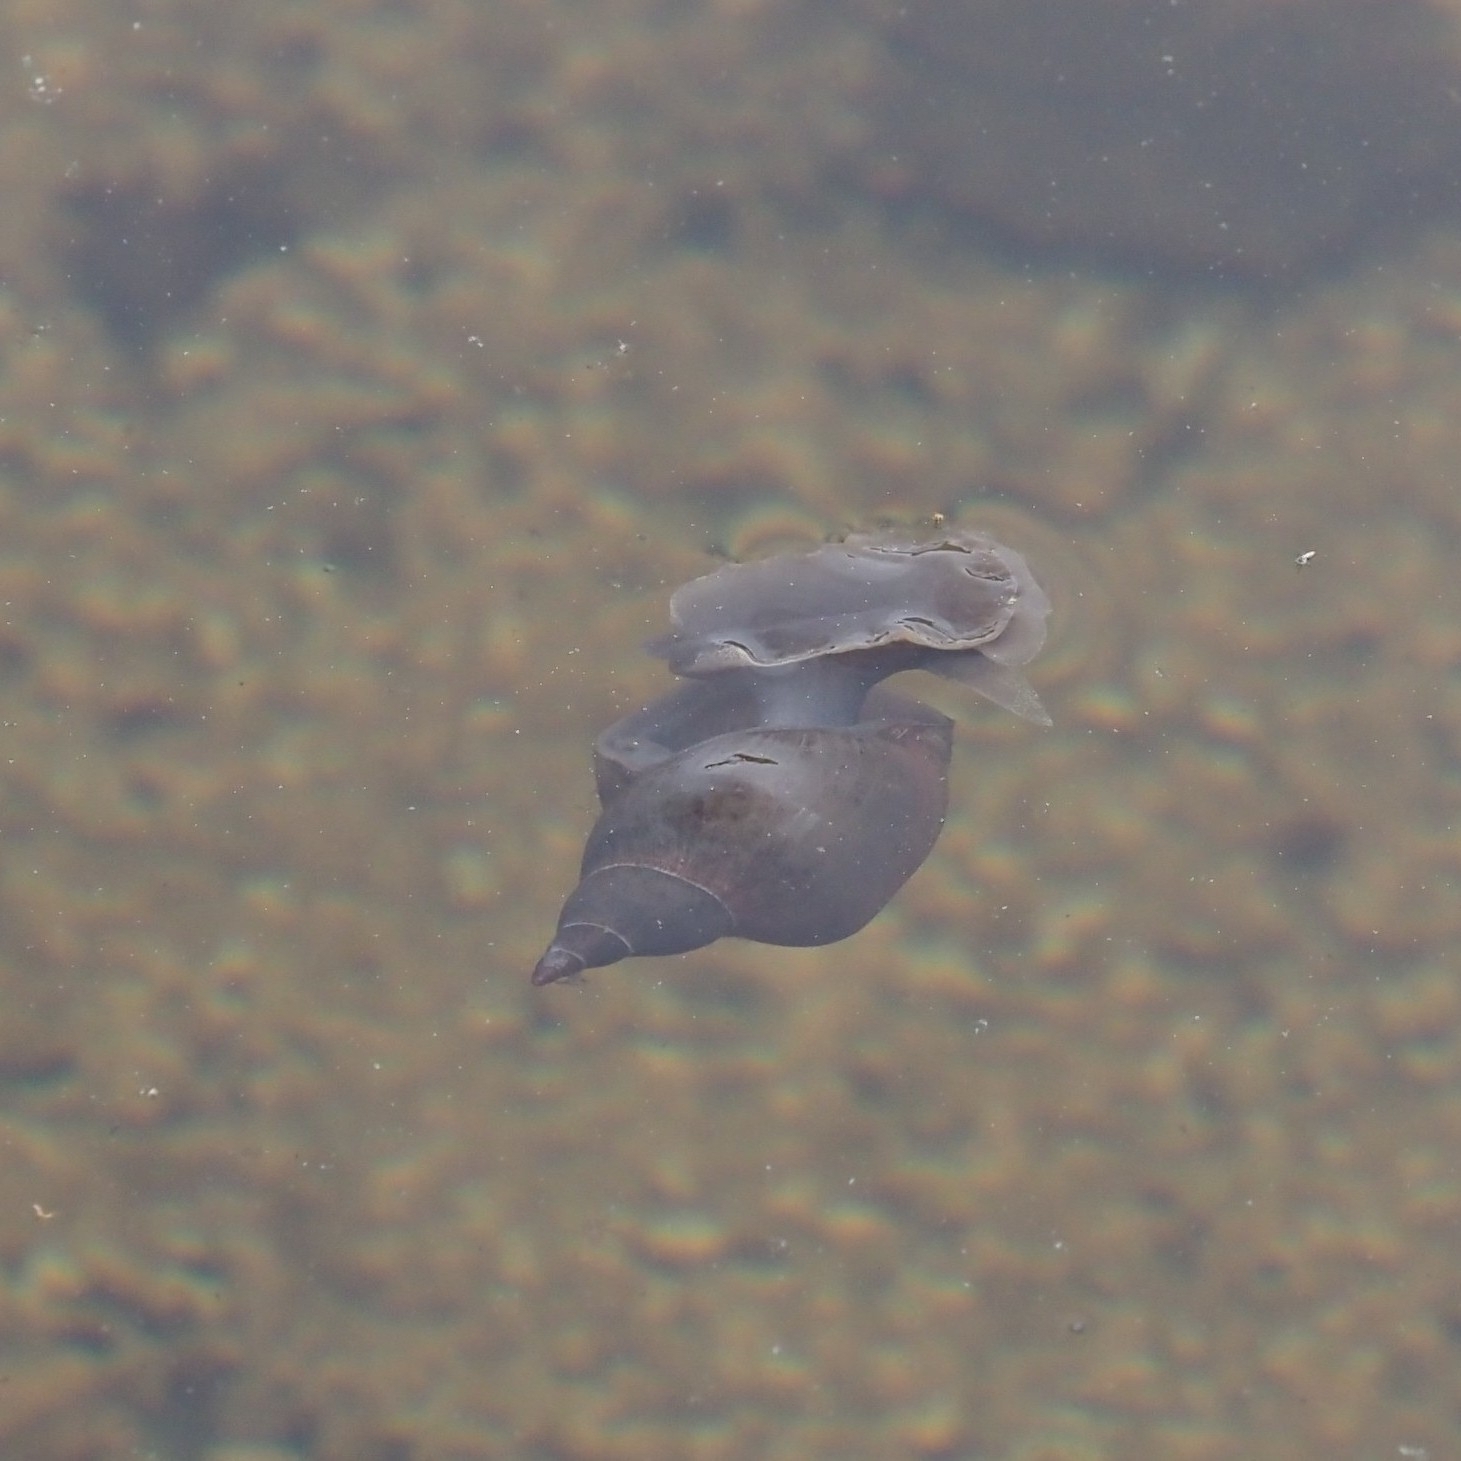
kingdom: Animalia
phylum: Mollusca
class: Gastropoda
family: Lymnaeidae
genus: Lymnaea
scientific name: Lymnaea stagnalis
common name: Great pond snail
